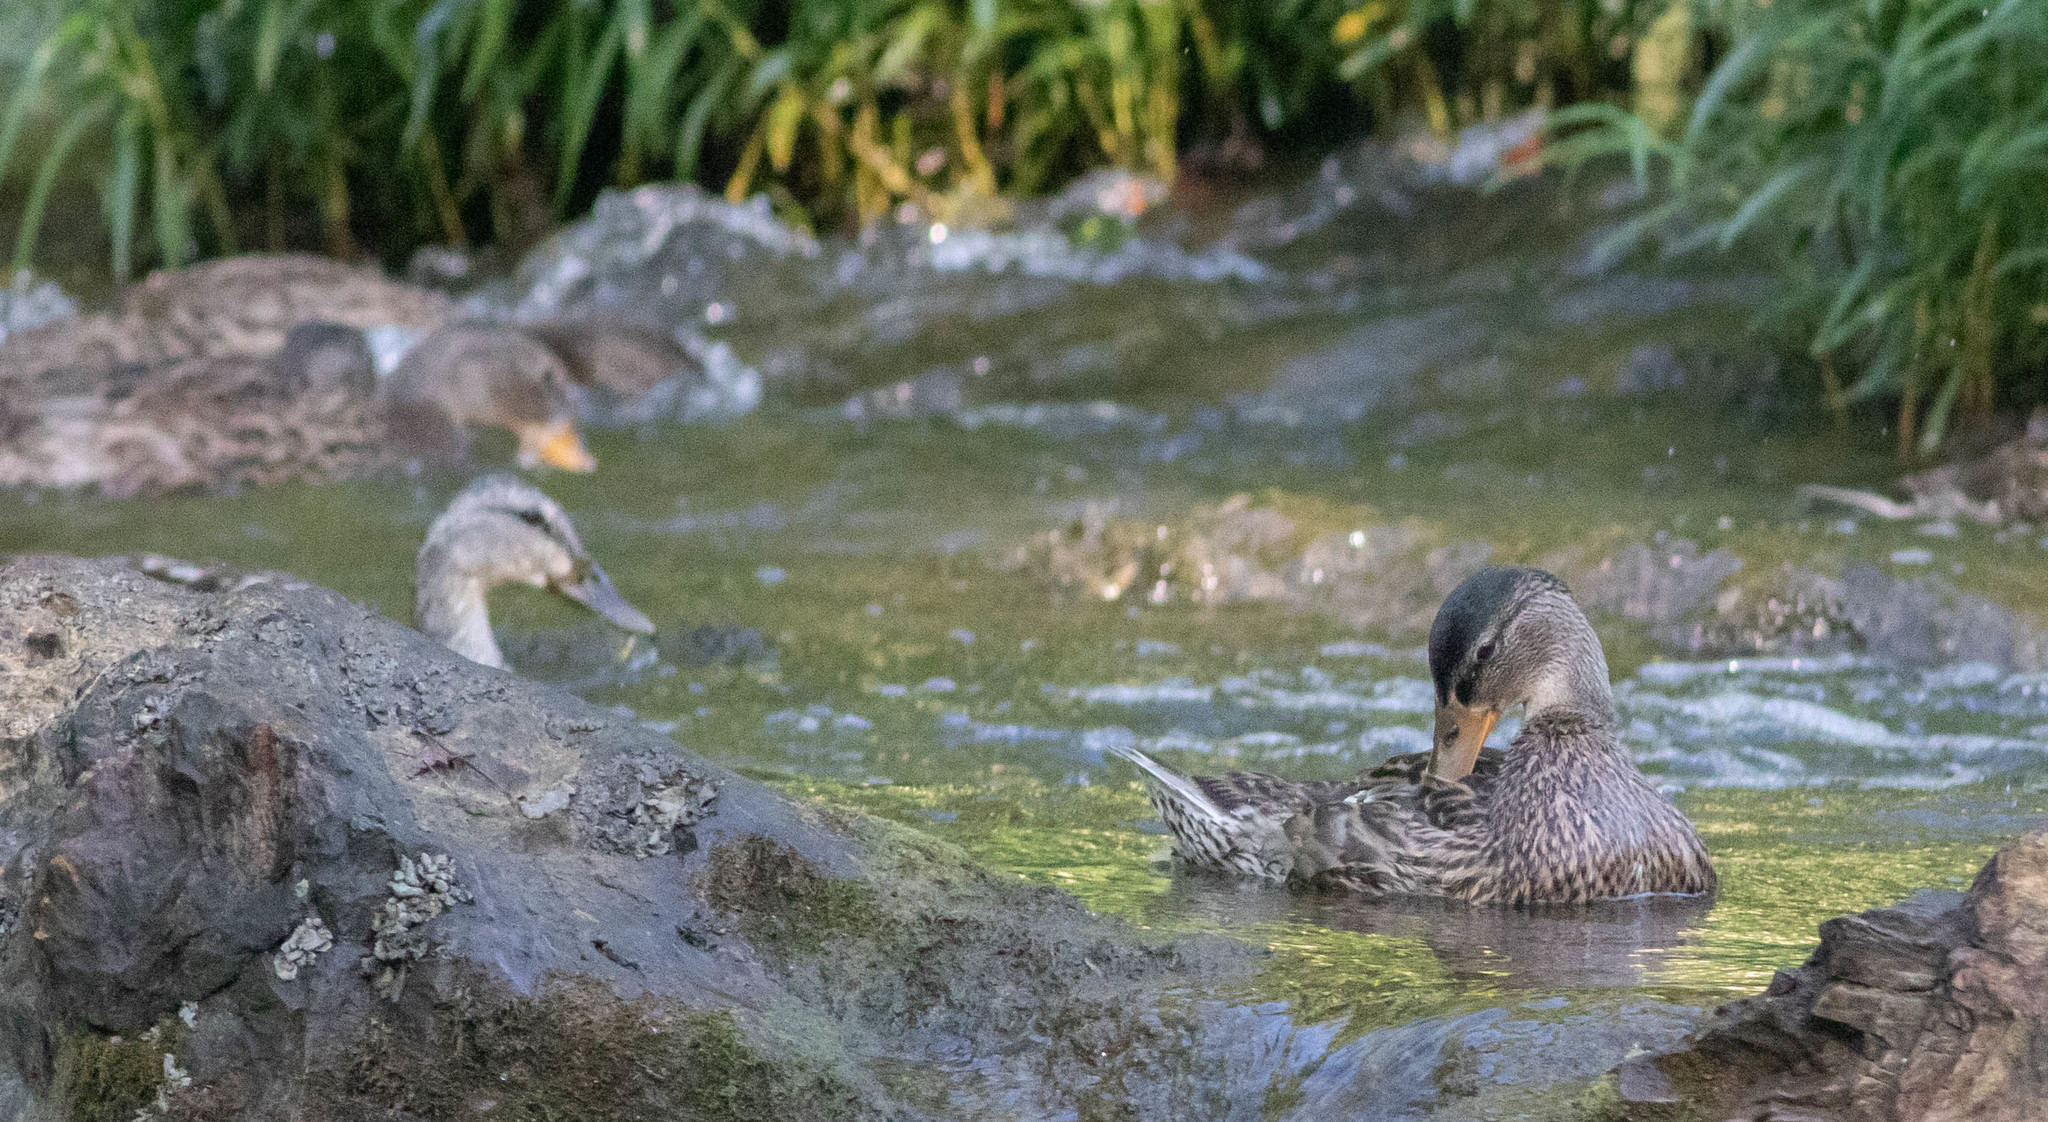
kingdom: Animalia
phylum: Chordata
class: Aves
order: Anseriformes
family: Anatidae
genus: Anas
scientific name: Anas platyrhynchos
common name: Mallard
